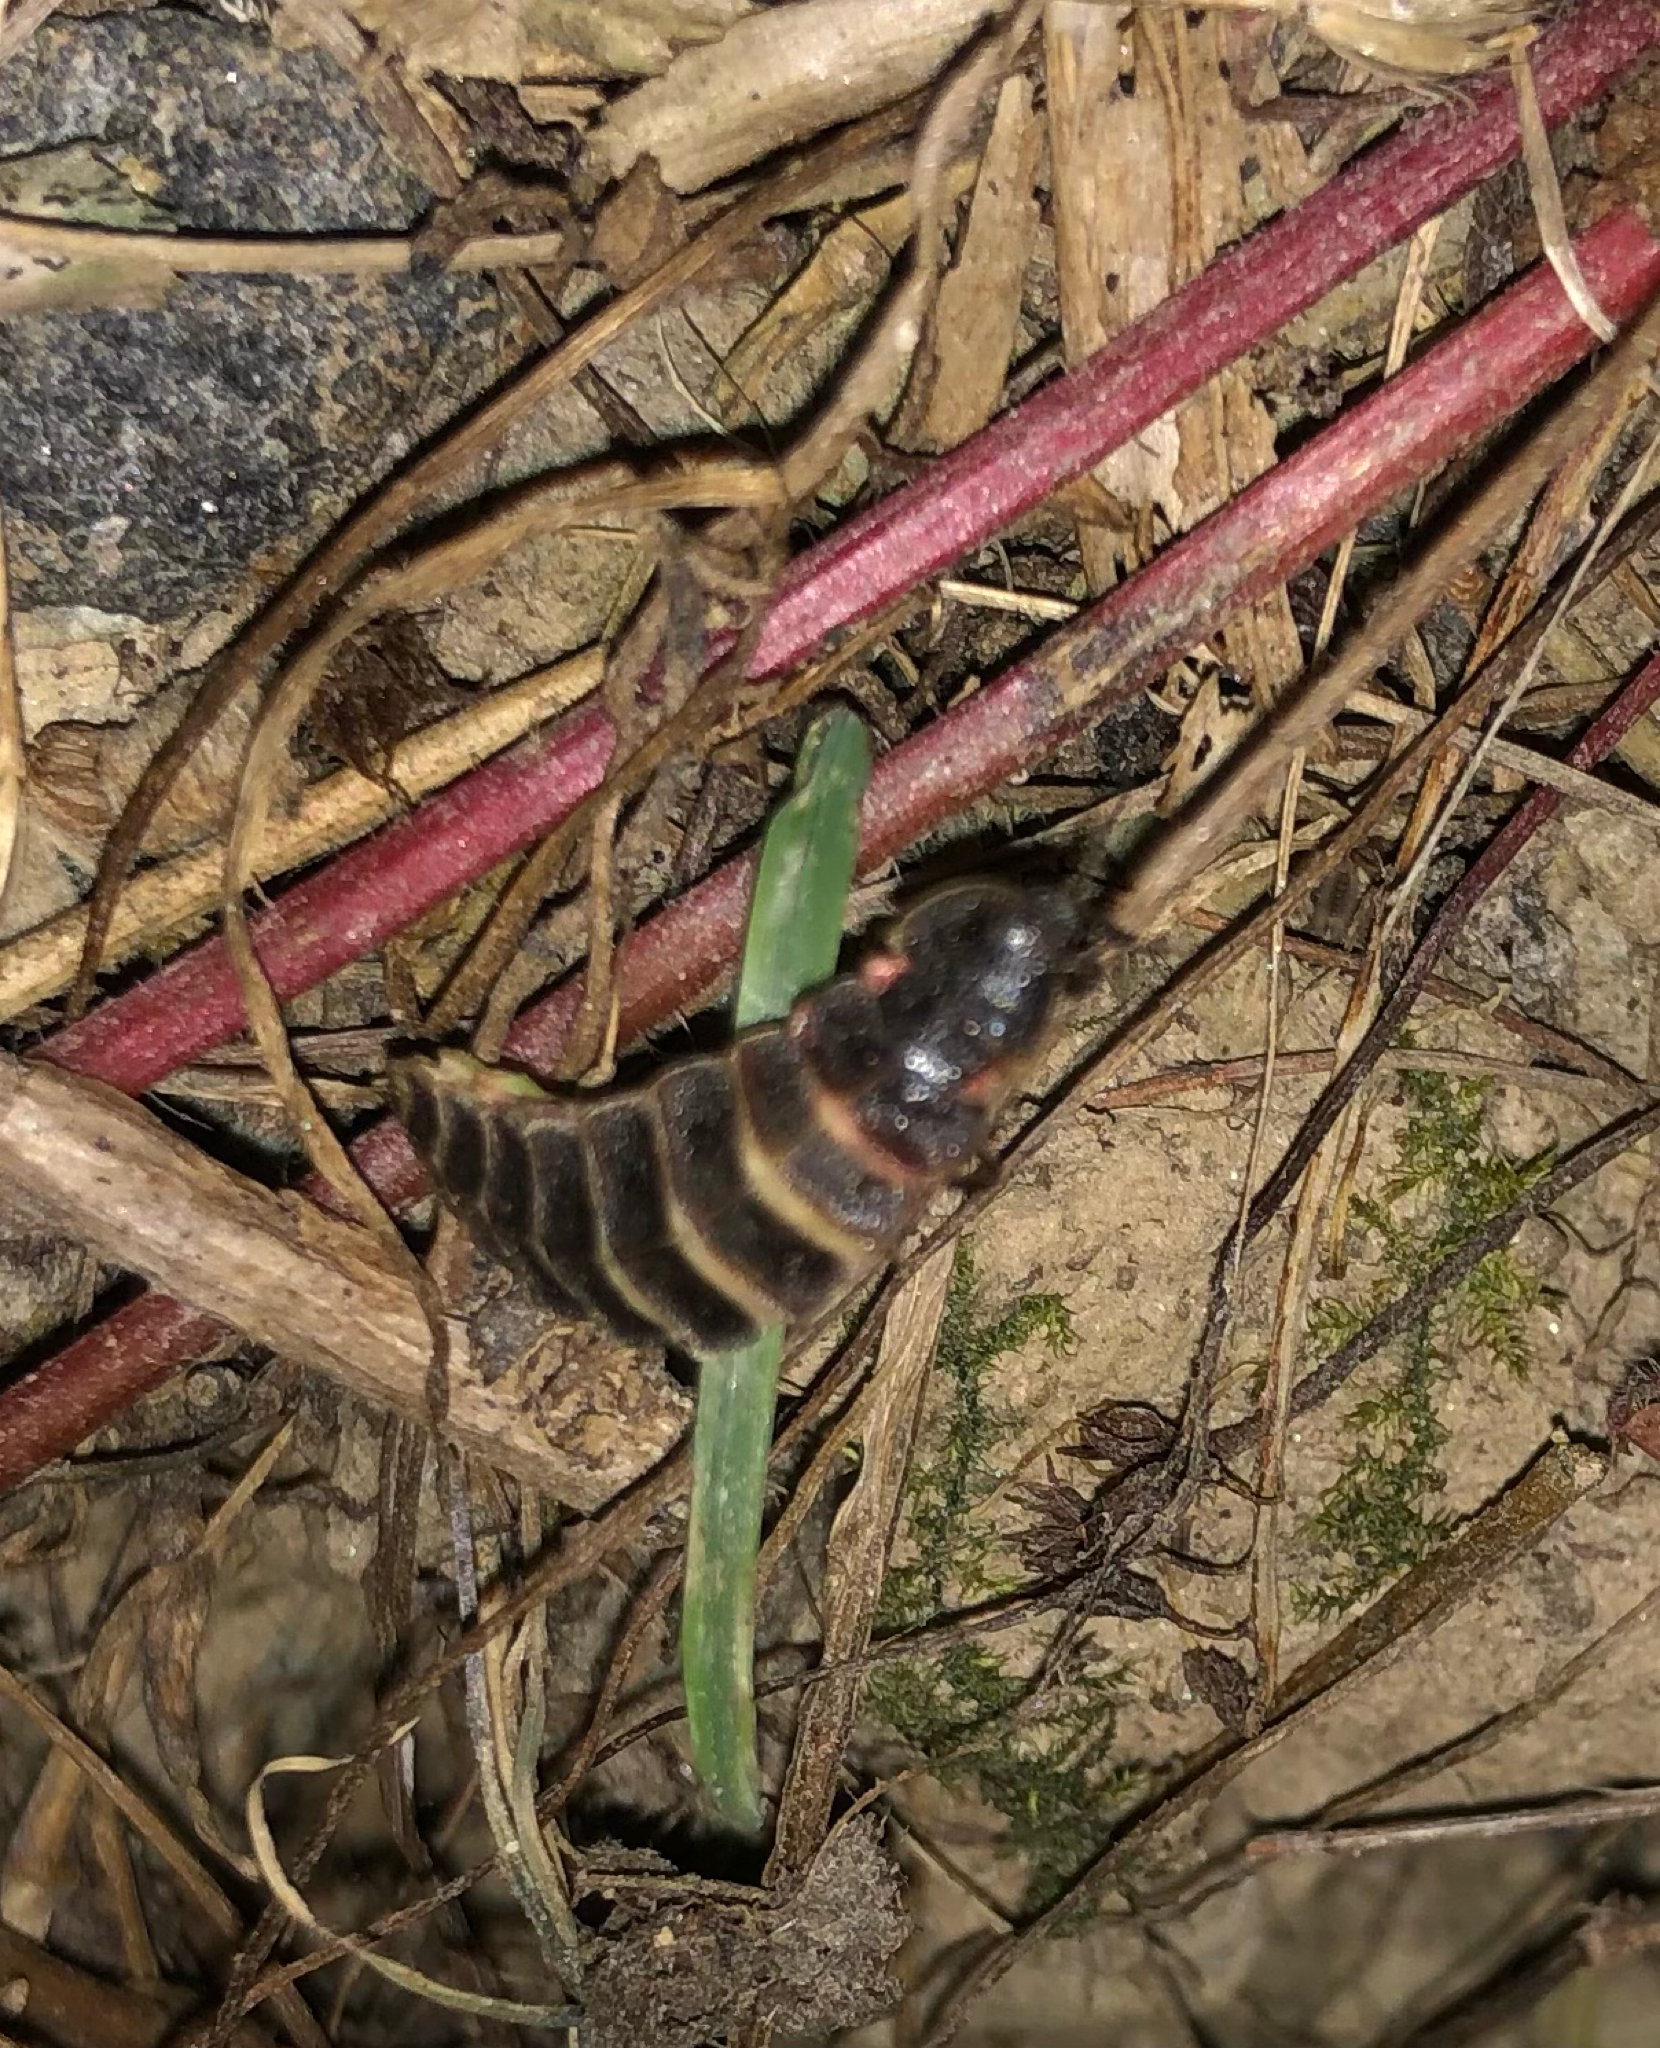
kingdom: Animalia
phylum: Arthropoda
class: Insecta
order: Coleoptera
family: Lampyridae
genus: Lampyris
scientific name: Lampyris noctiluca
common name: Glow-worm
